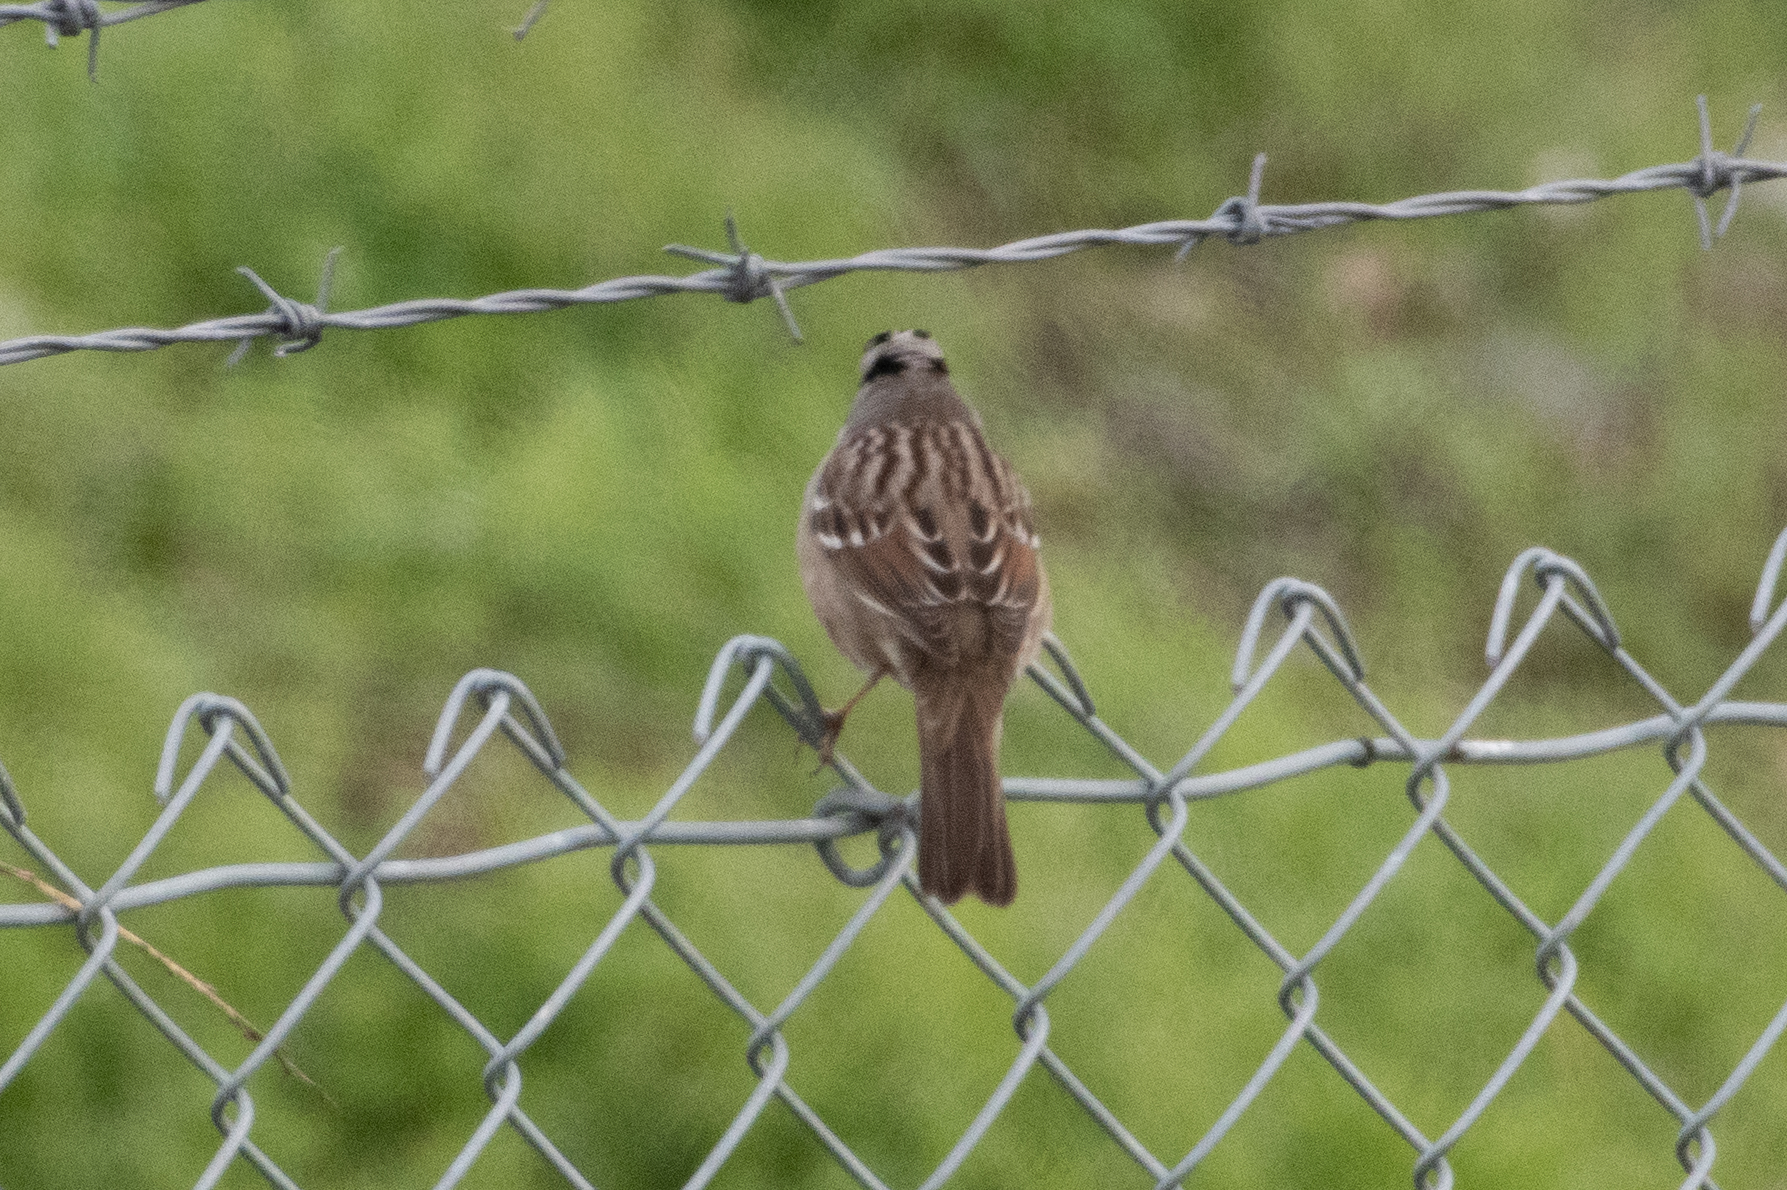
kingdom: Animalia
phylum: Chordata
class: Aves
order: Passeriformes
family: Passerellidae
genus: Zonotrichia
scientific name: Zonotrichia leucophrys
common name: White-crowned sparrow
